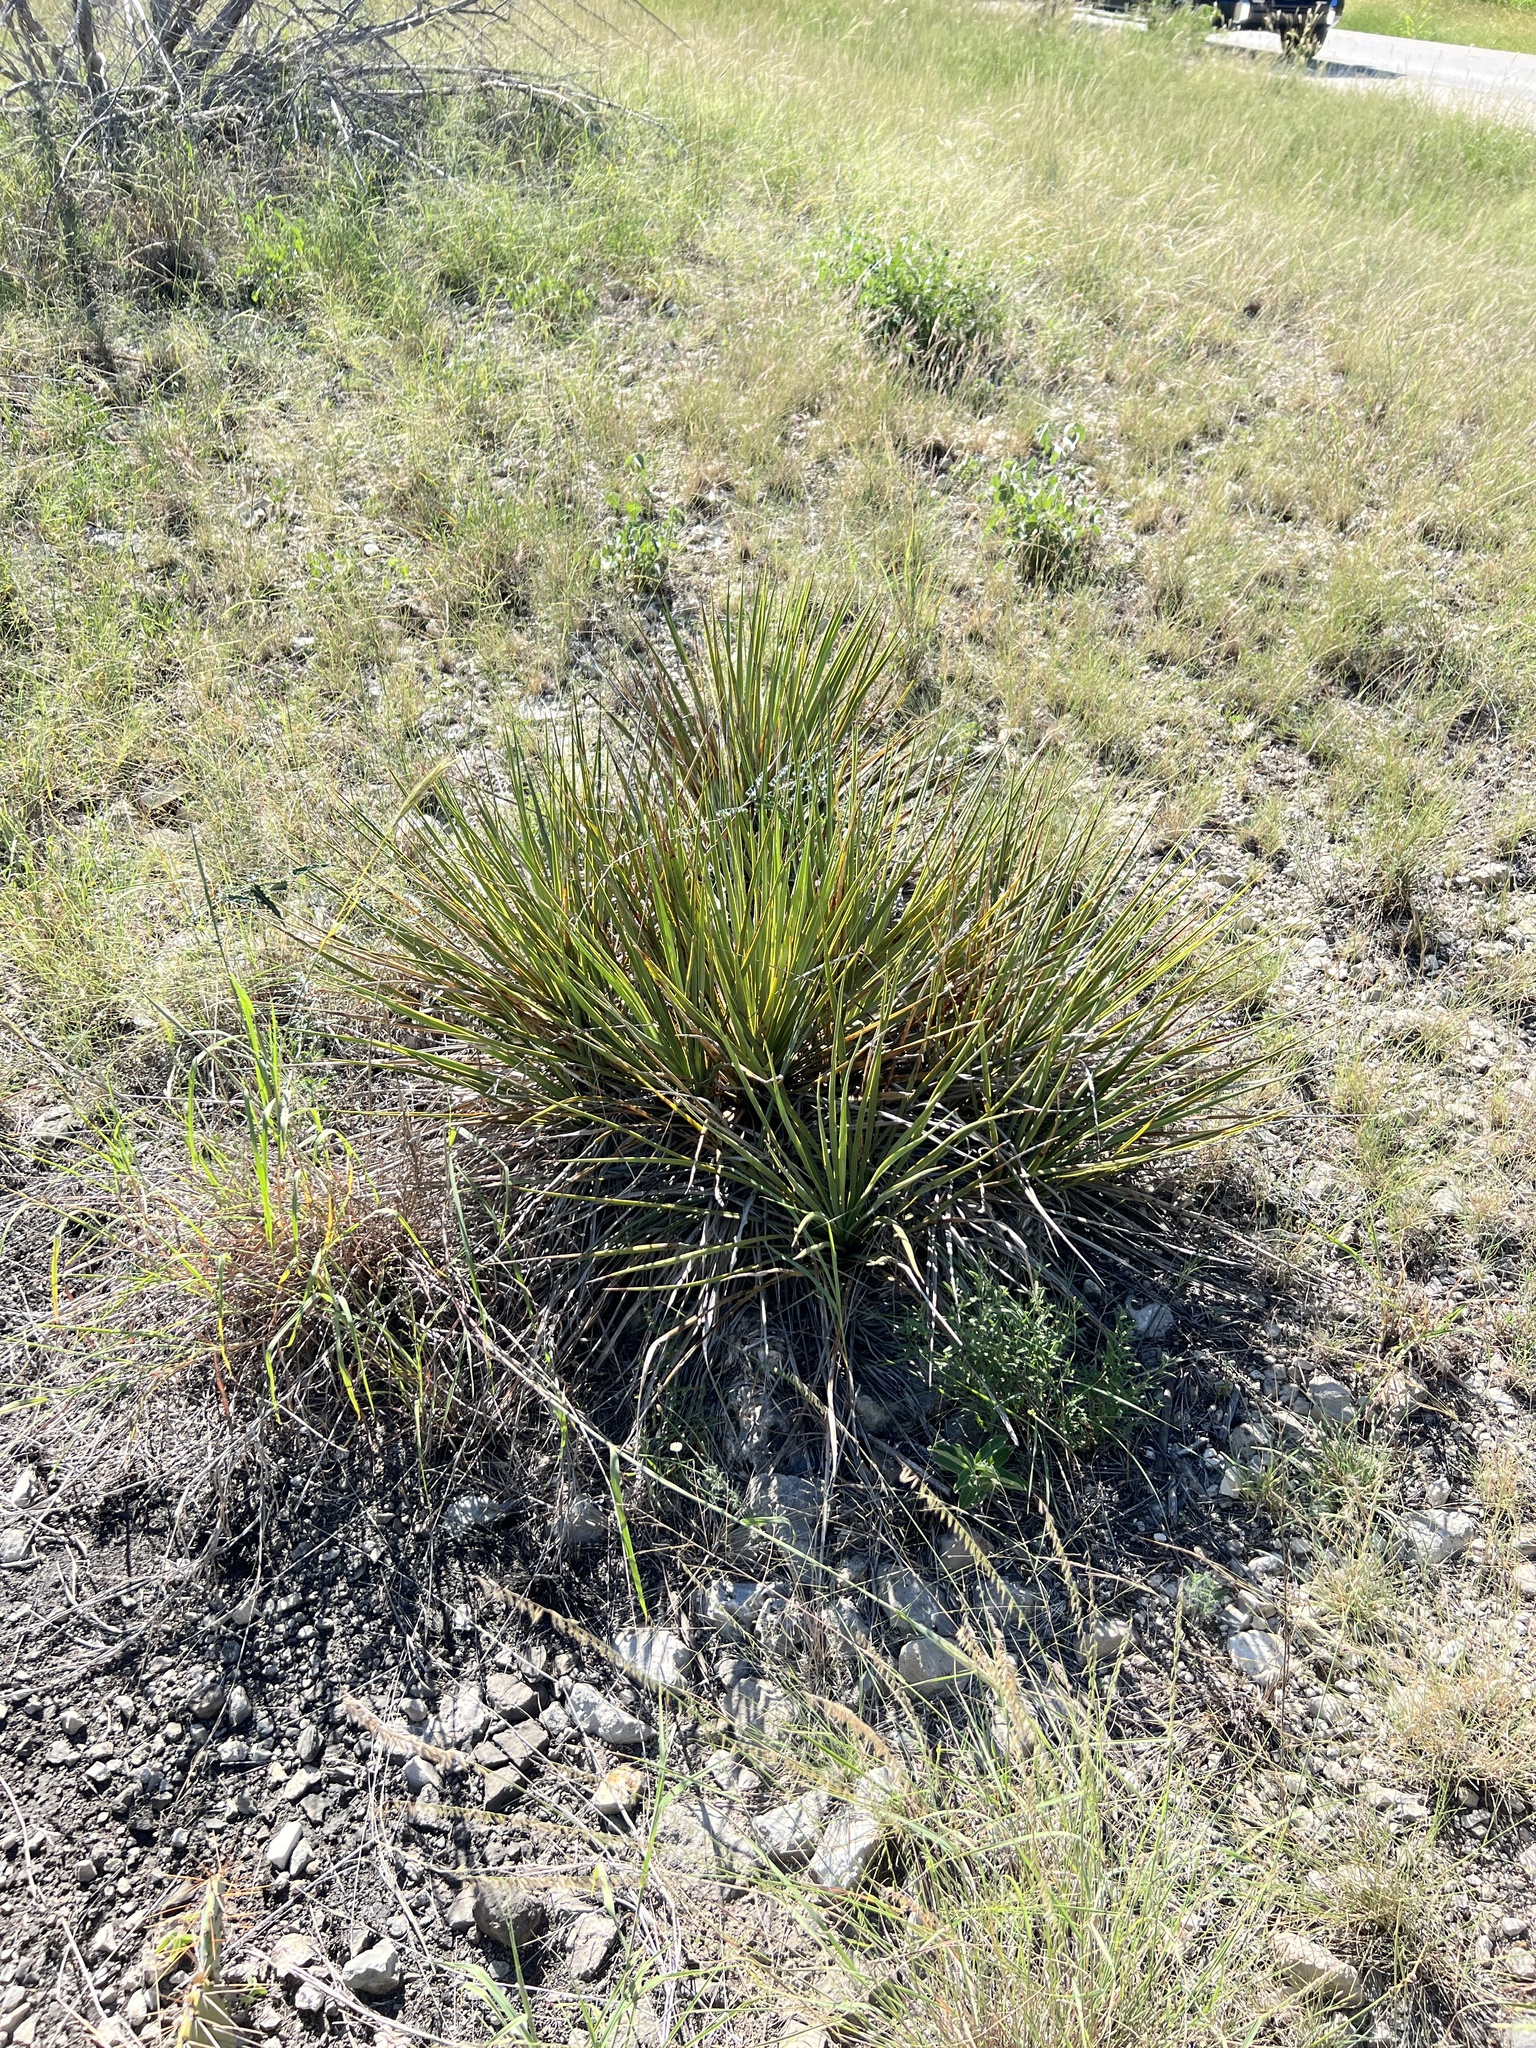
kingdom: Plantae
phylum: Tracheophyta
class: Liliopsida
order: Asparagales
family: Asparagaceae
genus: Yucca
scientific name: Yucca reverchonii
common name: San angelo yucca
